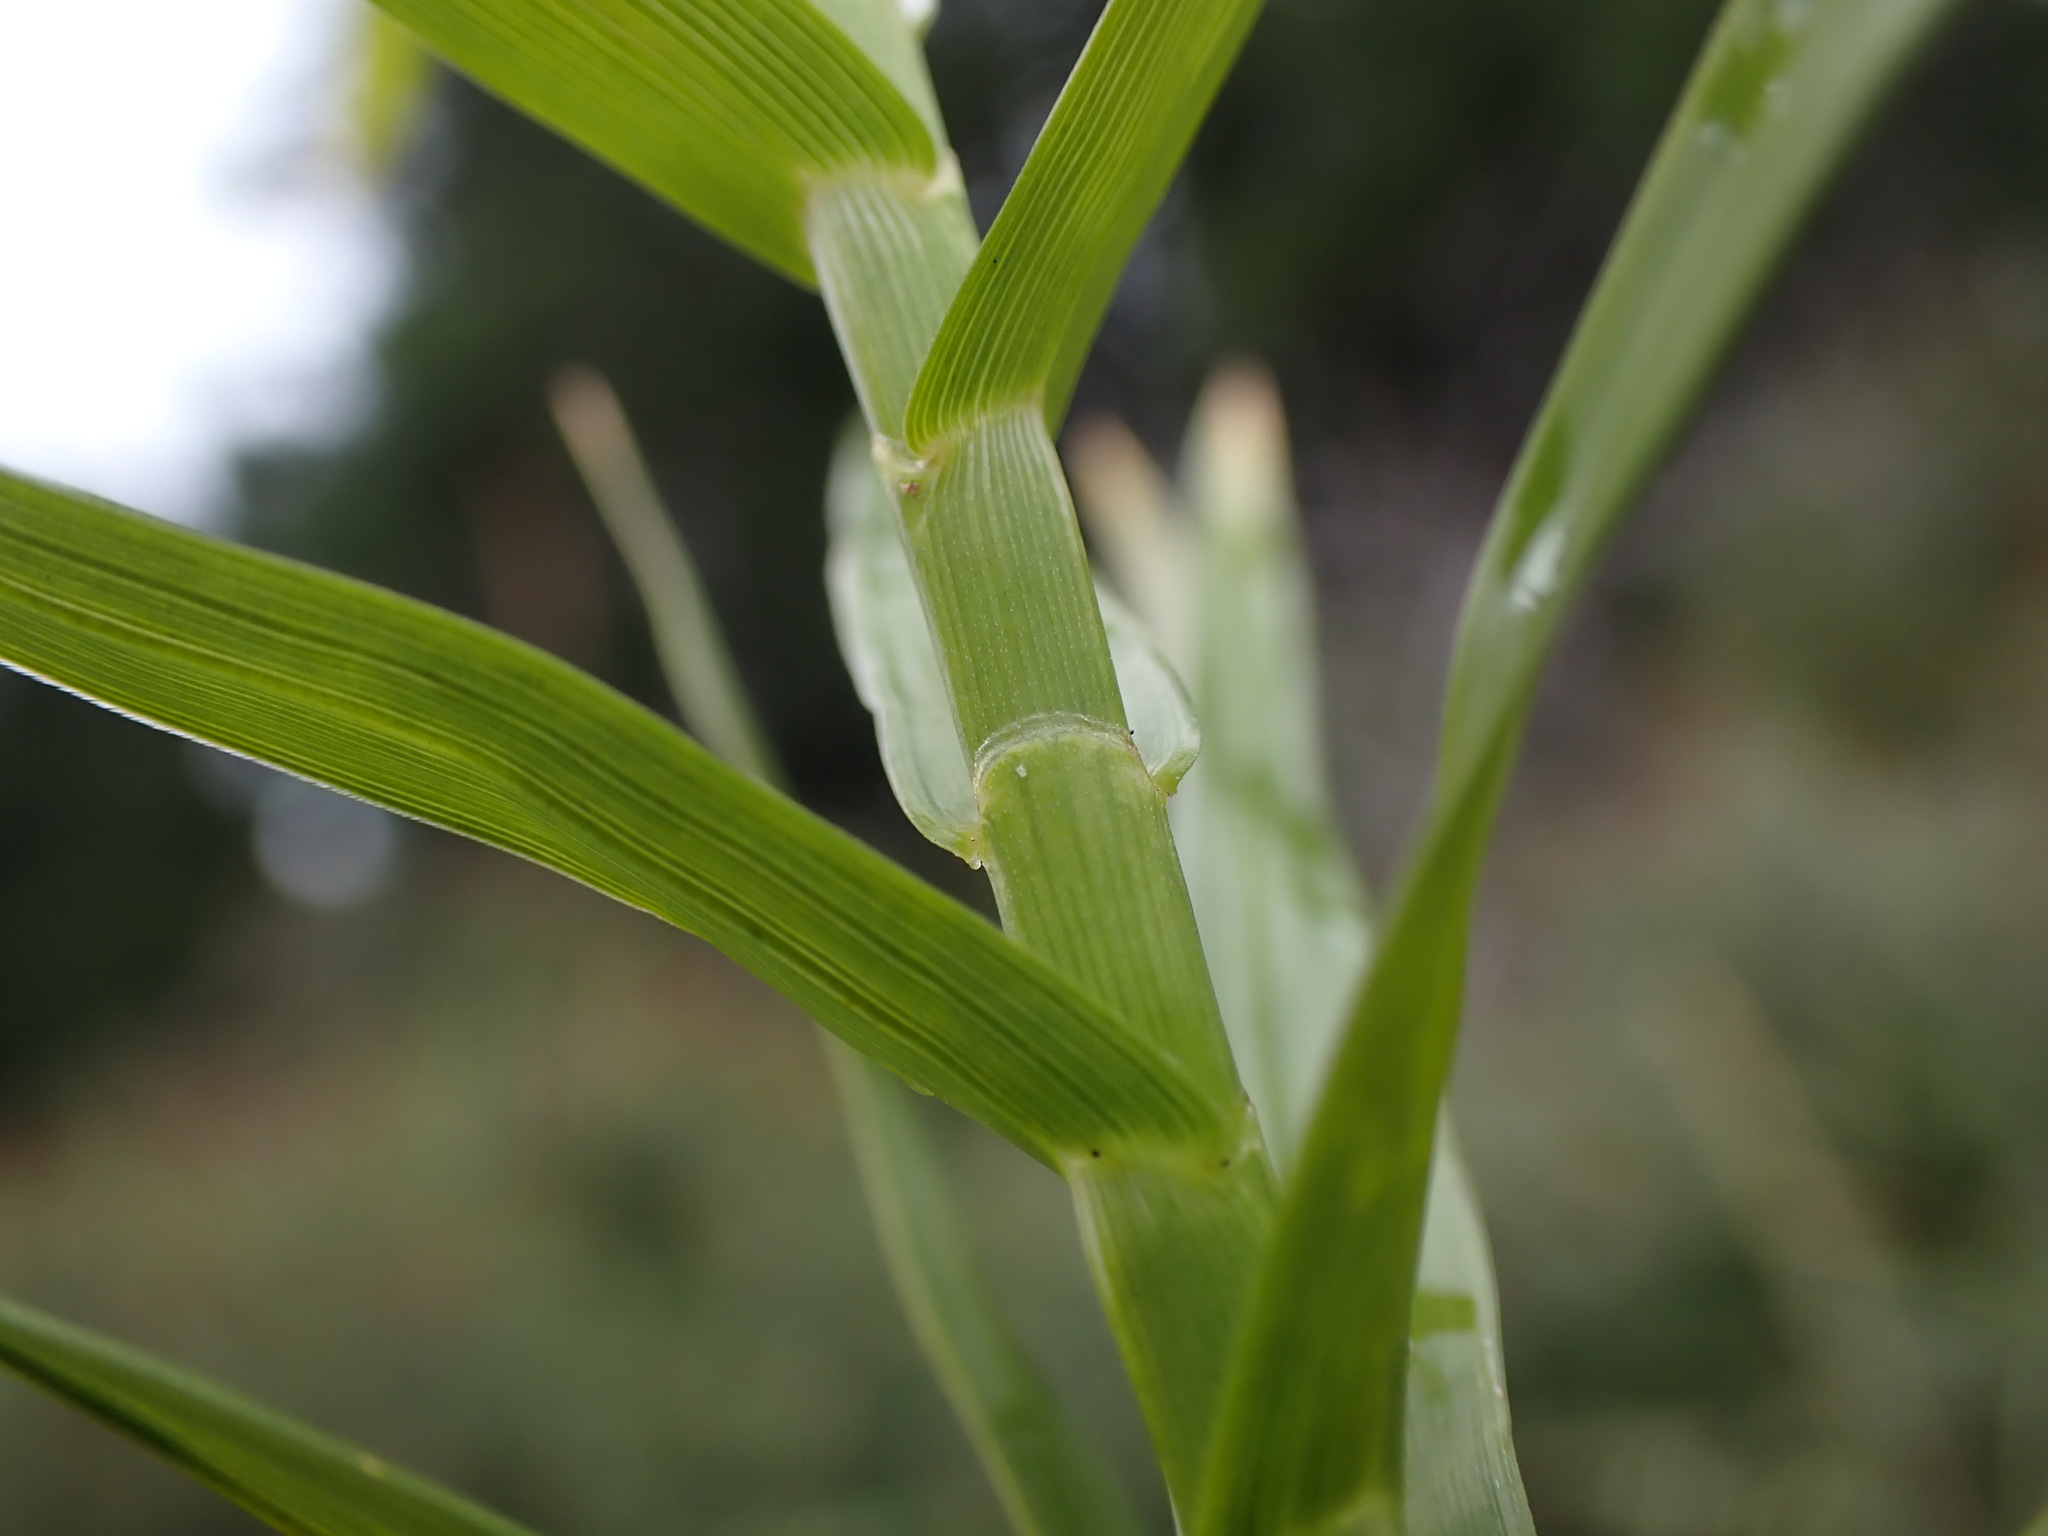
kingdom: Plantae
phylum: Tracheophyta
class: Liliopsida
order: Poales
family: Cyperaceae
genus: Dulichium
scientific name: Dulichium arundinaceum
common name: Three-way sedge
